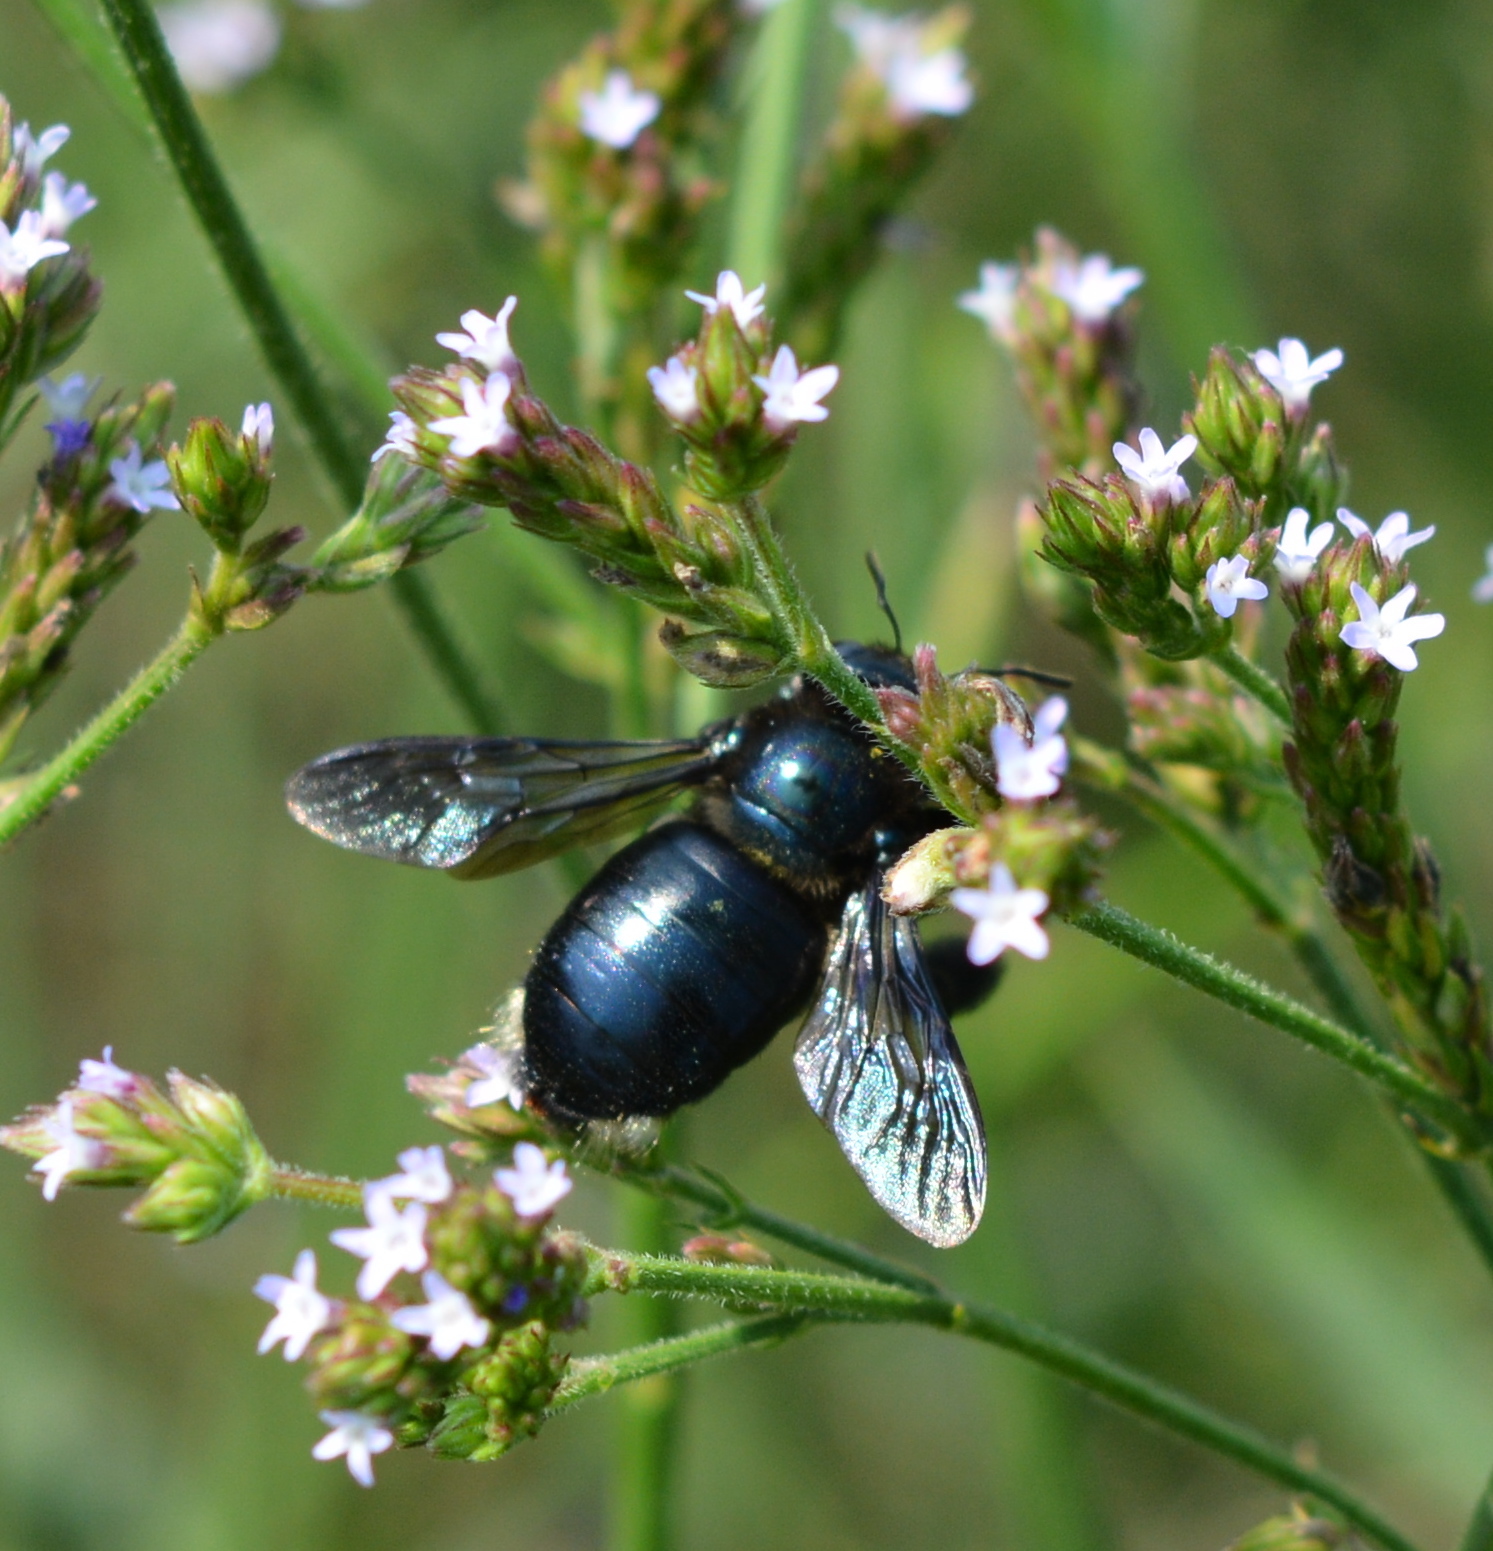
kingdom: Animalia
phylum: Arthropoda
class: Insecta
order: Hymenoptera
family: Apidae
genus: Xylocopa
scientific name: Xylocopa micans
